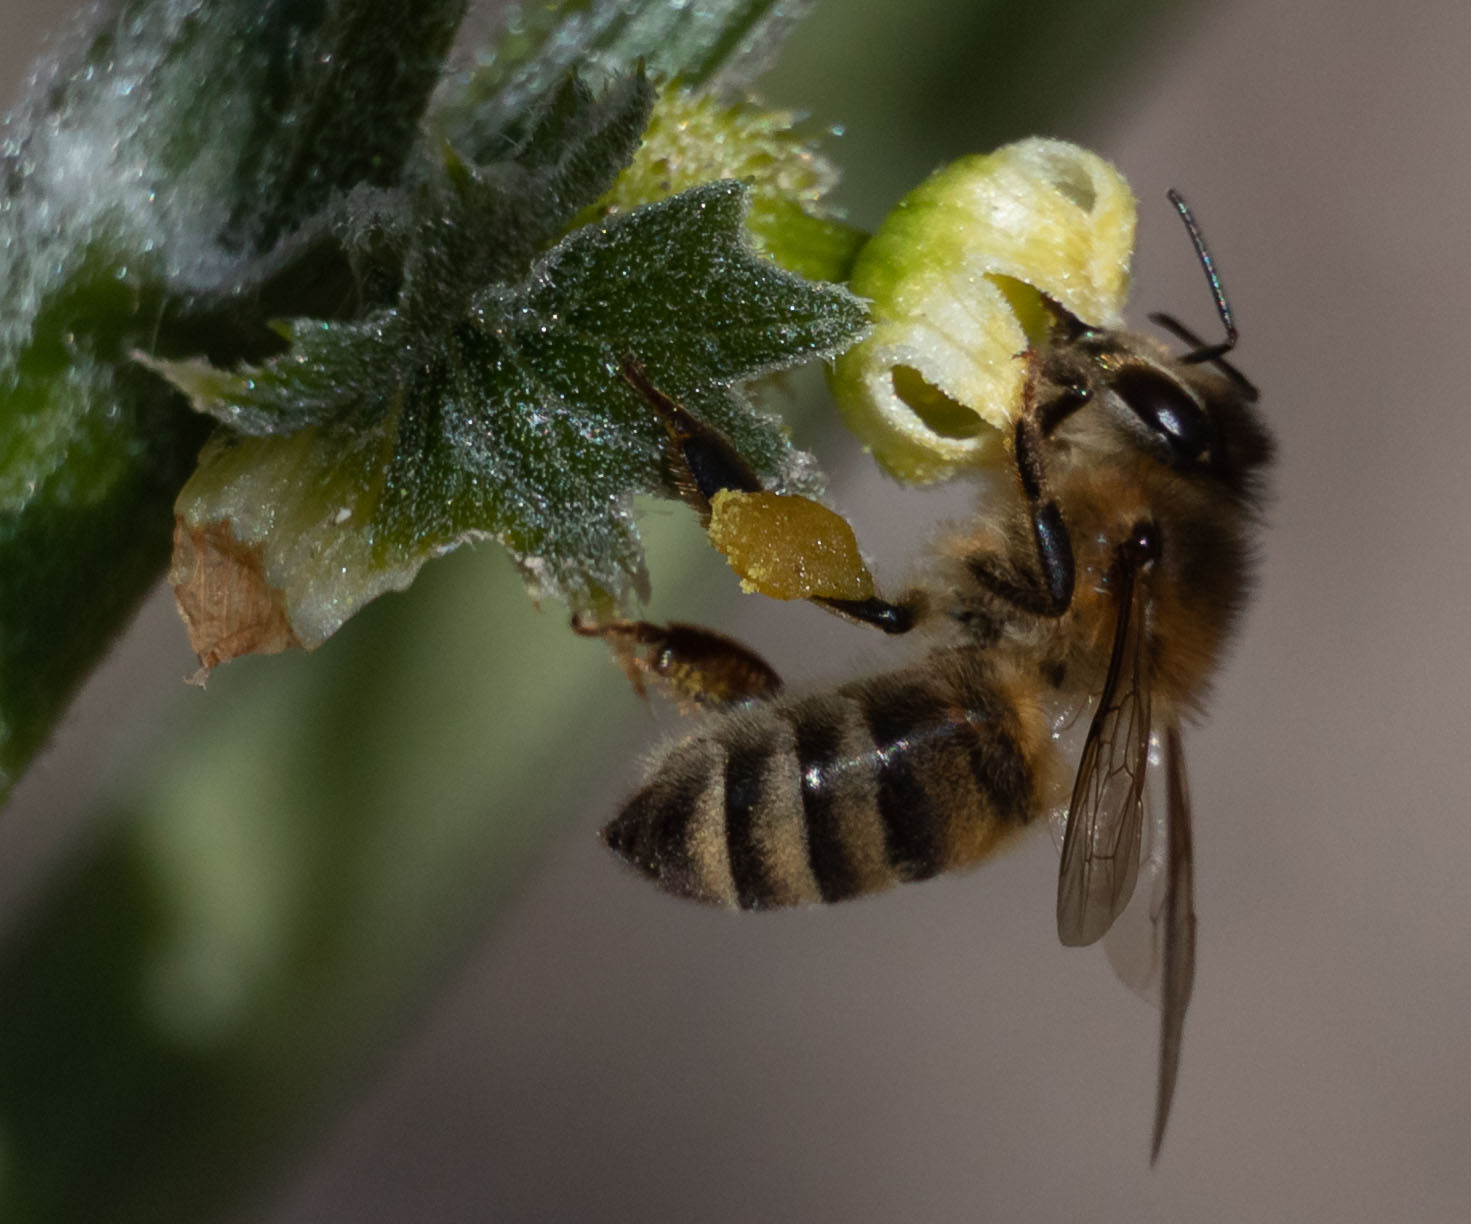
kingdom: Animalia
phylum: Arthropoda
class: Insecta
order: Hymenoptera
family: Apidae
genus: Apis
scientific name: Apis mellifera
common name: Honey bee
